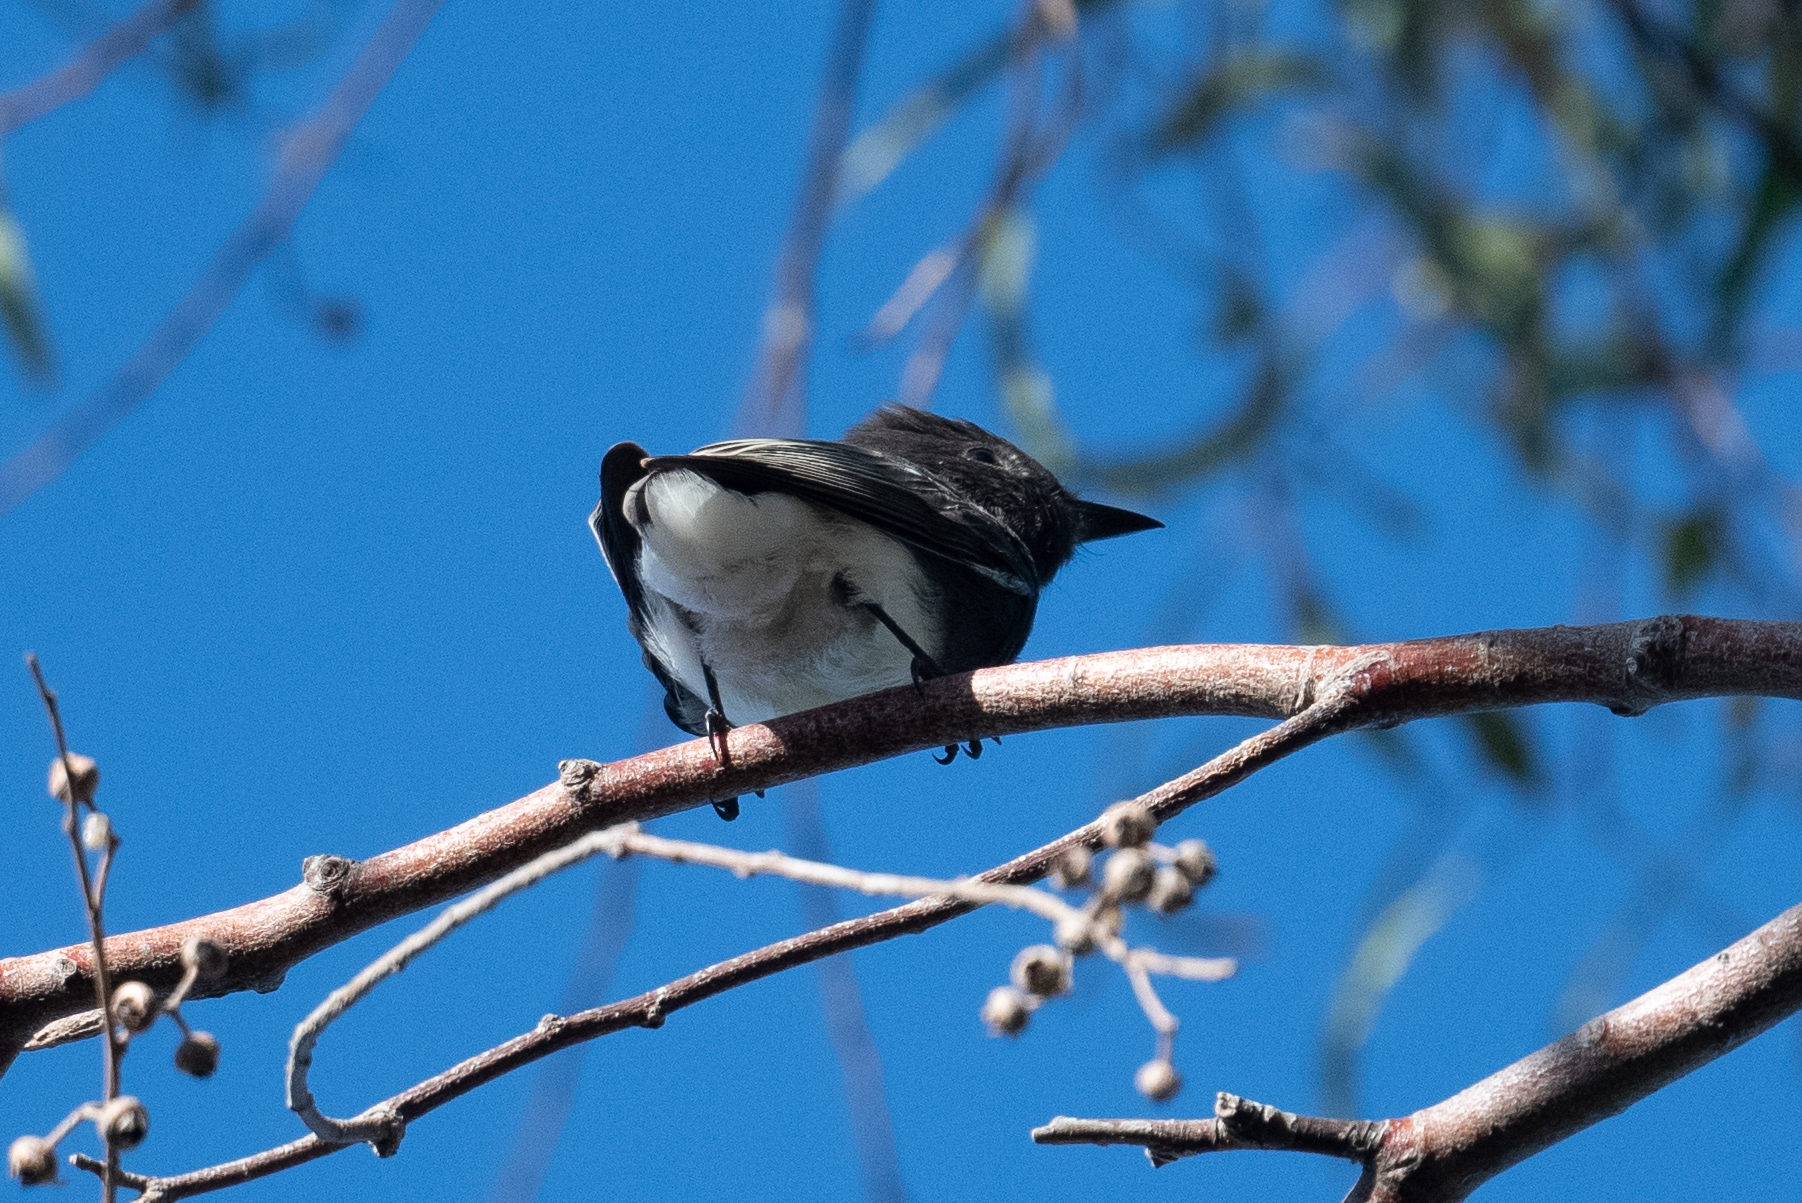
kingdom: Animalia
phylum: Chordata
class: Aves
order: Passeriformes
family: Tyrannidae
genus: Sayornis
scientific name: Sayornis nigricans
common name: Black phoebe
